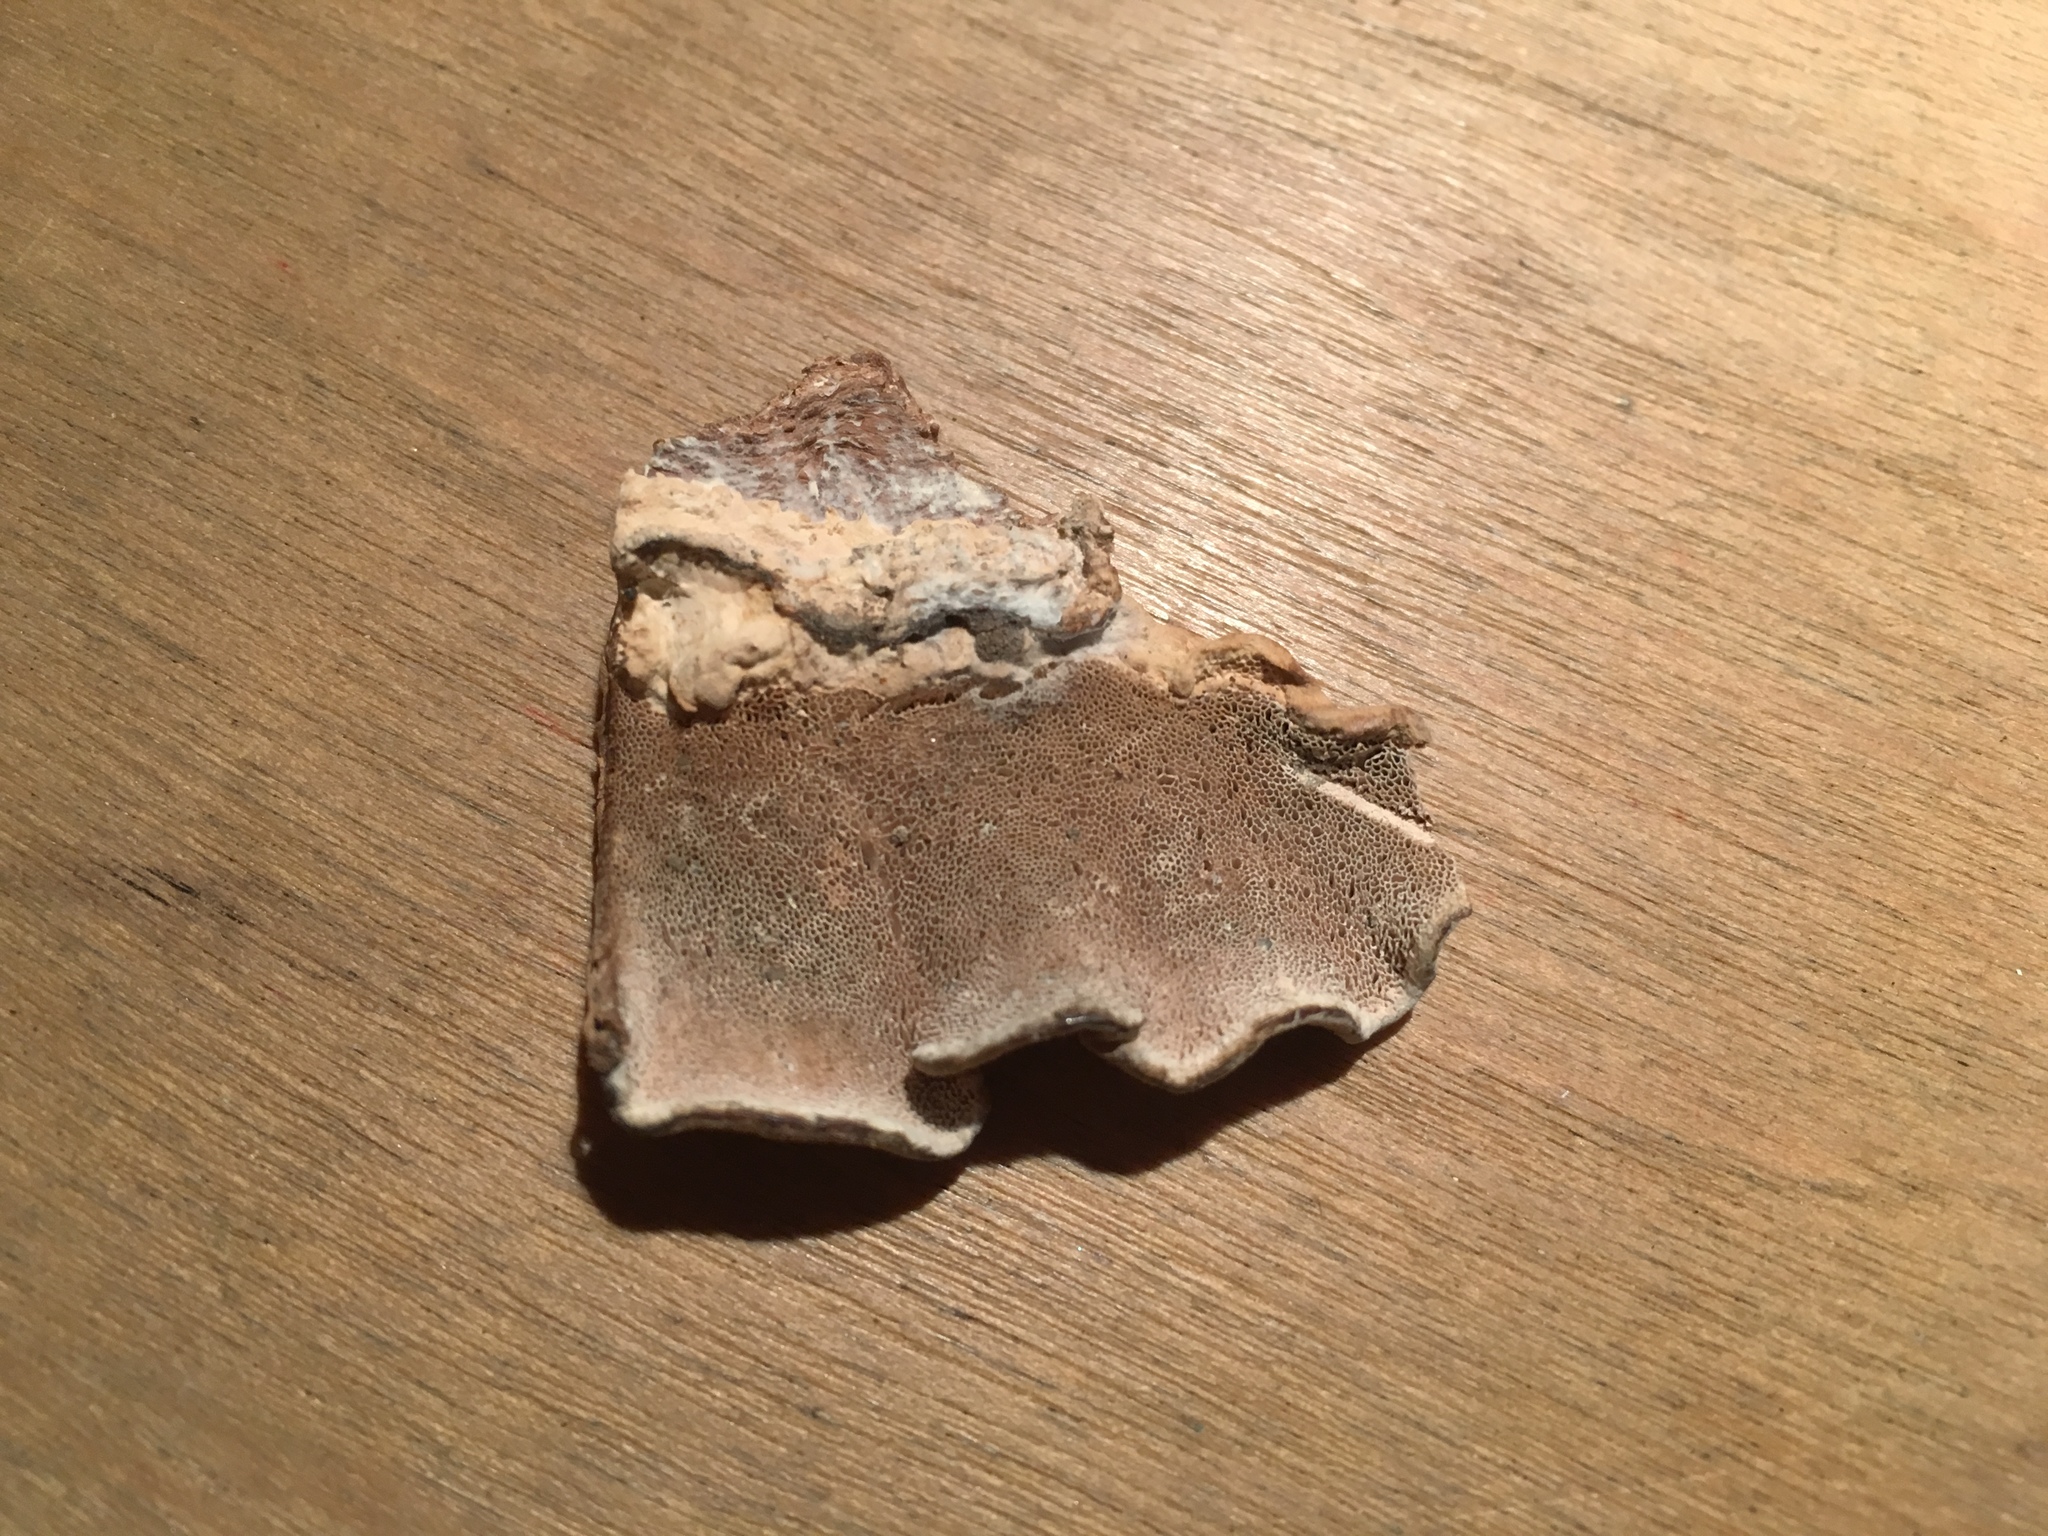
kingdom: Fungi
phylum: Basidiomycota
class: Agaricomycetes
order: Polyporales
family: Fomitopsidaceae
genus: Fomitopsis
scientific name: Fomitopsis
